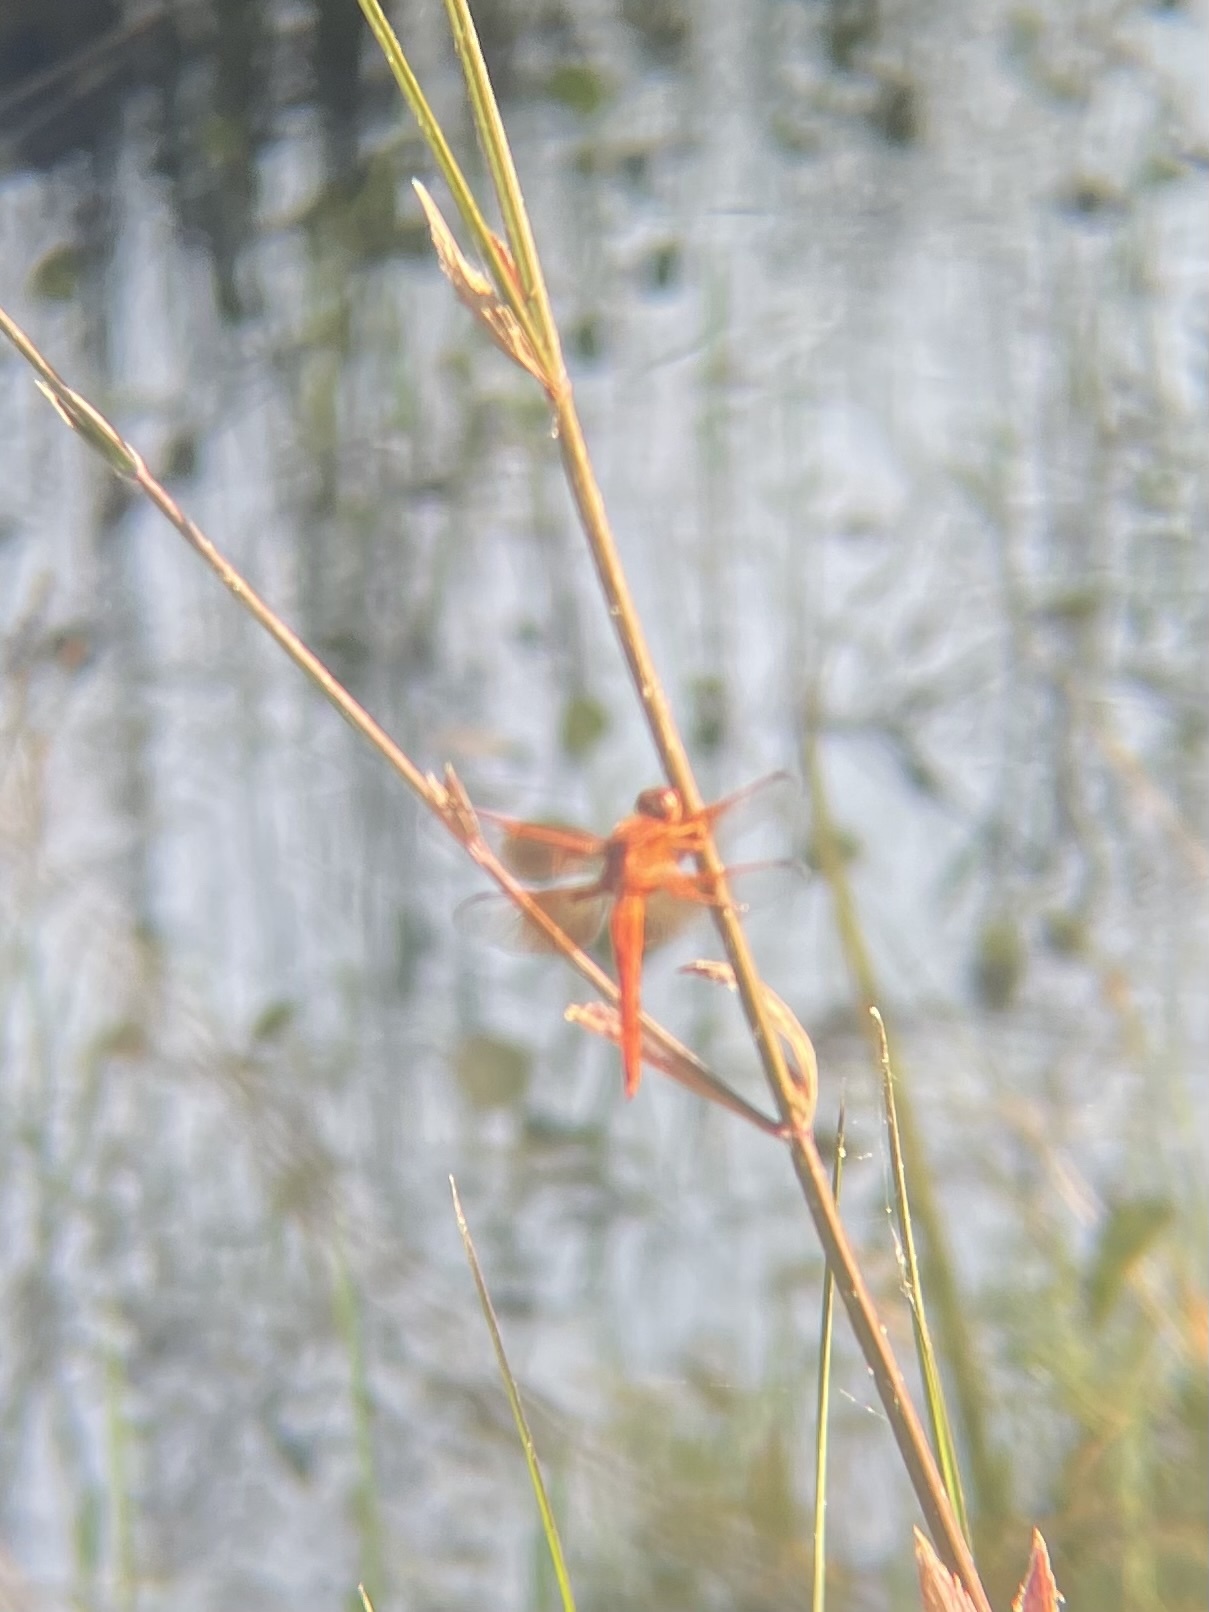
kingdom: Animalia
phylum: Arthropoda
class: Insecta
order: Odonata
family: Libellulidae
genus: Libellula
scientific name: Libellula saturata
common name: Flame skimmer
